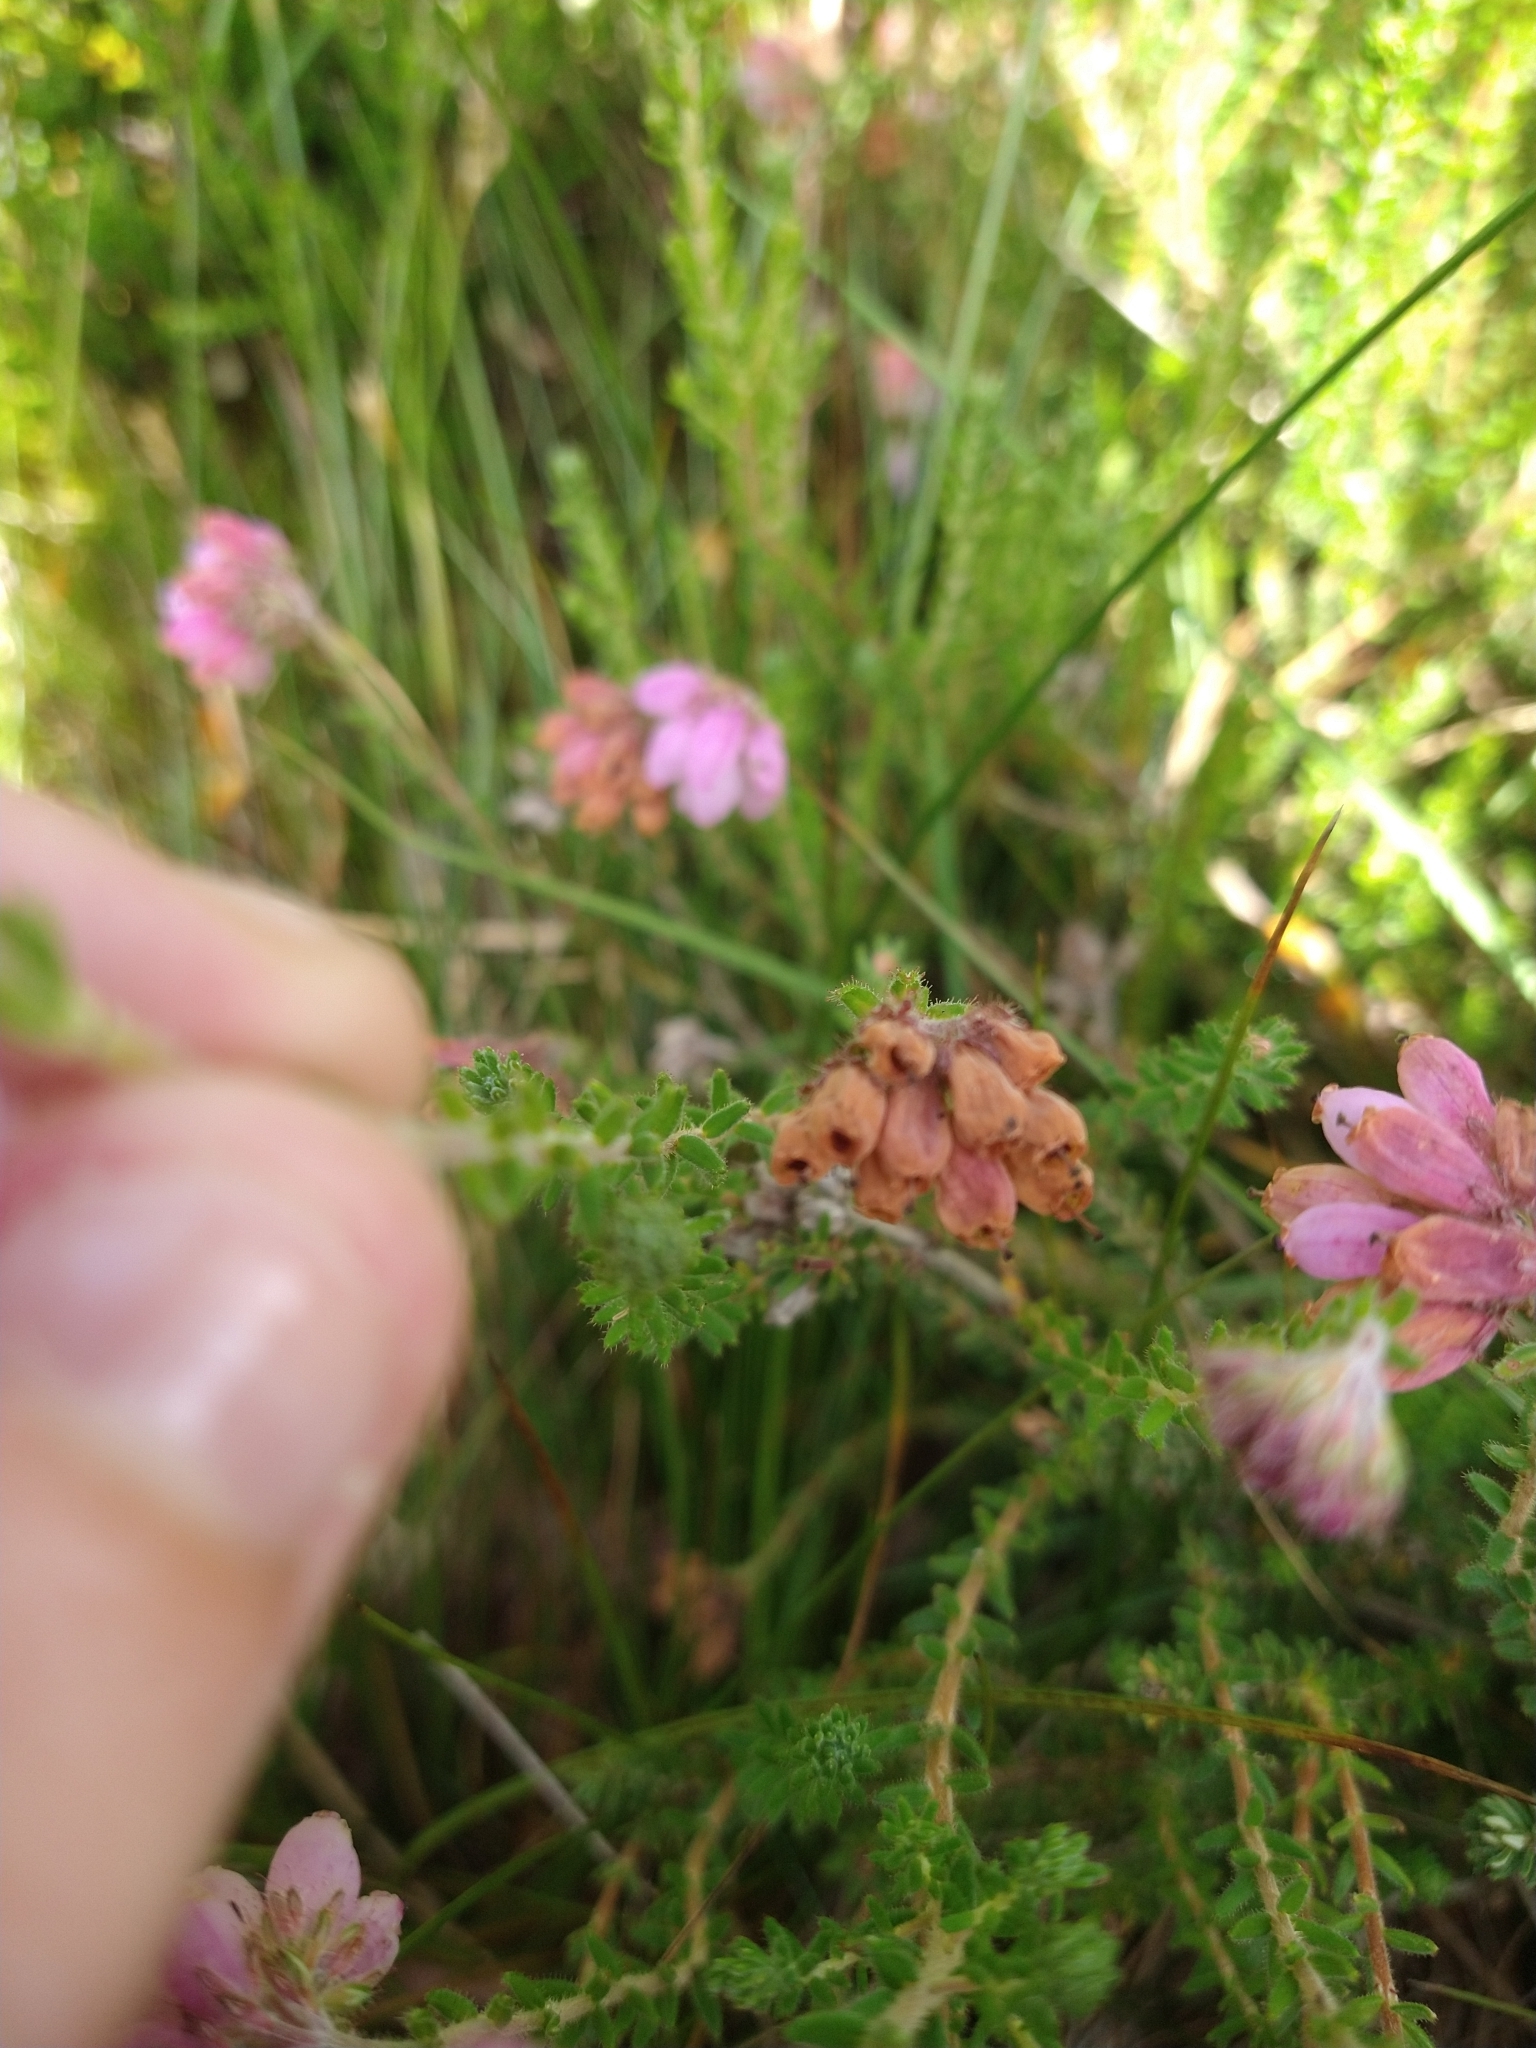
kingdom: Plantae
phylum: Tracheophyta
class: Magnoliopsida
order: Ericales
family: Ericaceae
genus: Erica
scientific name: Erica tetralix
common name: Cross-leaved heath
